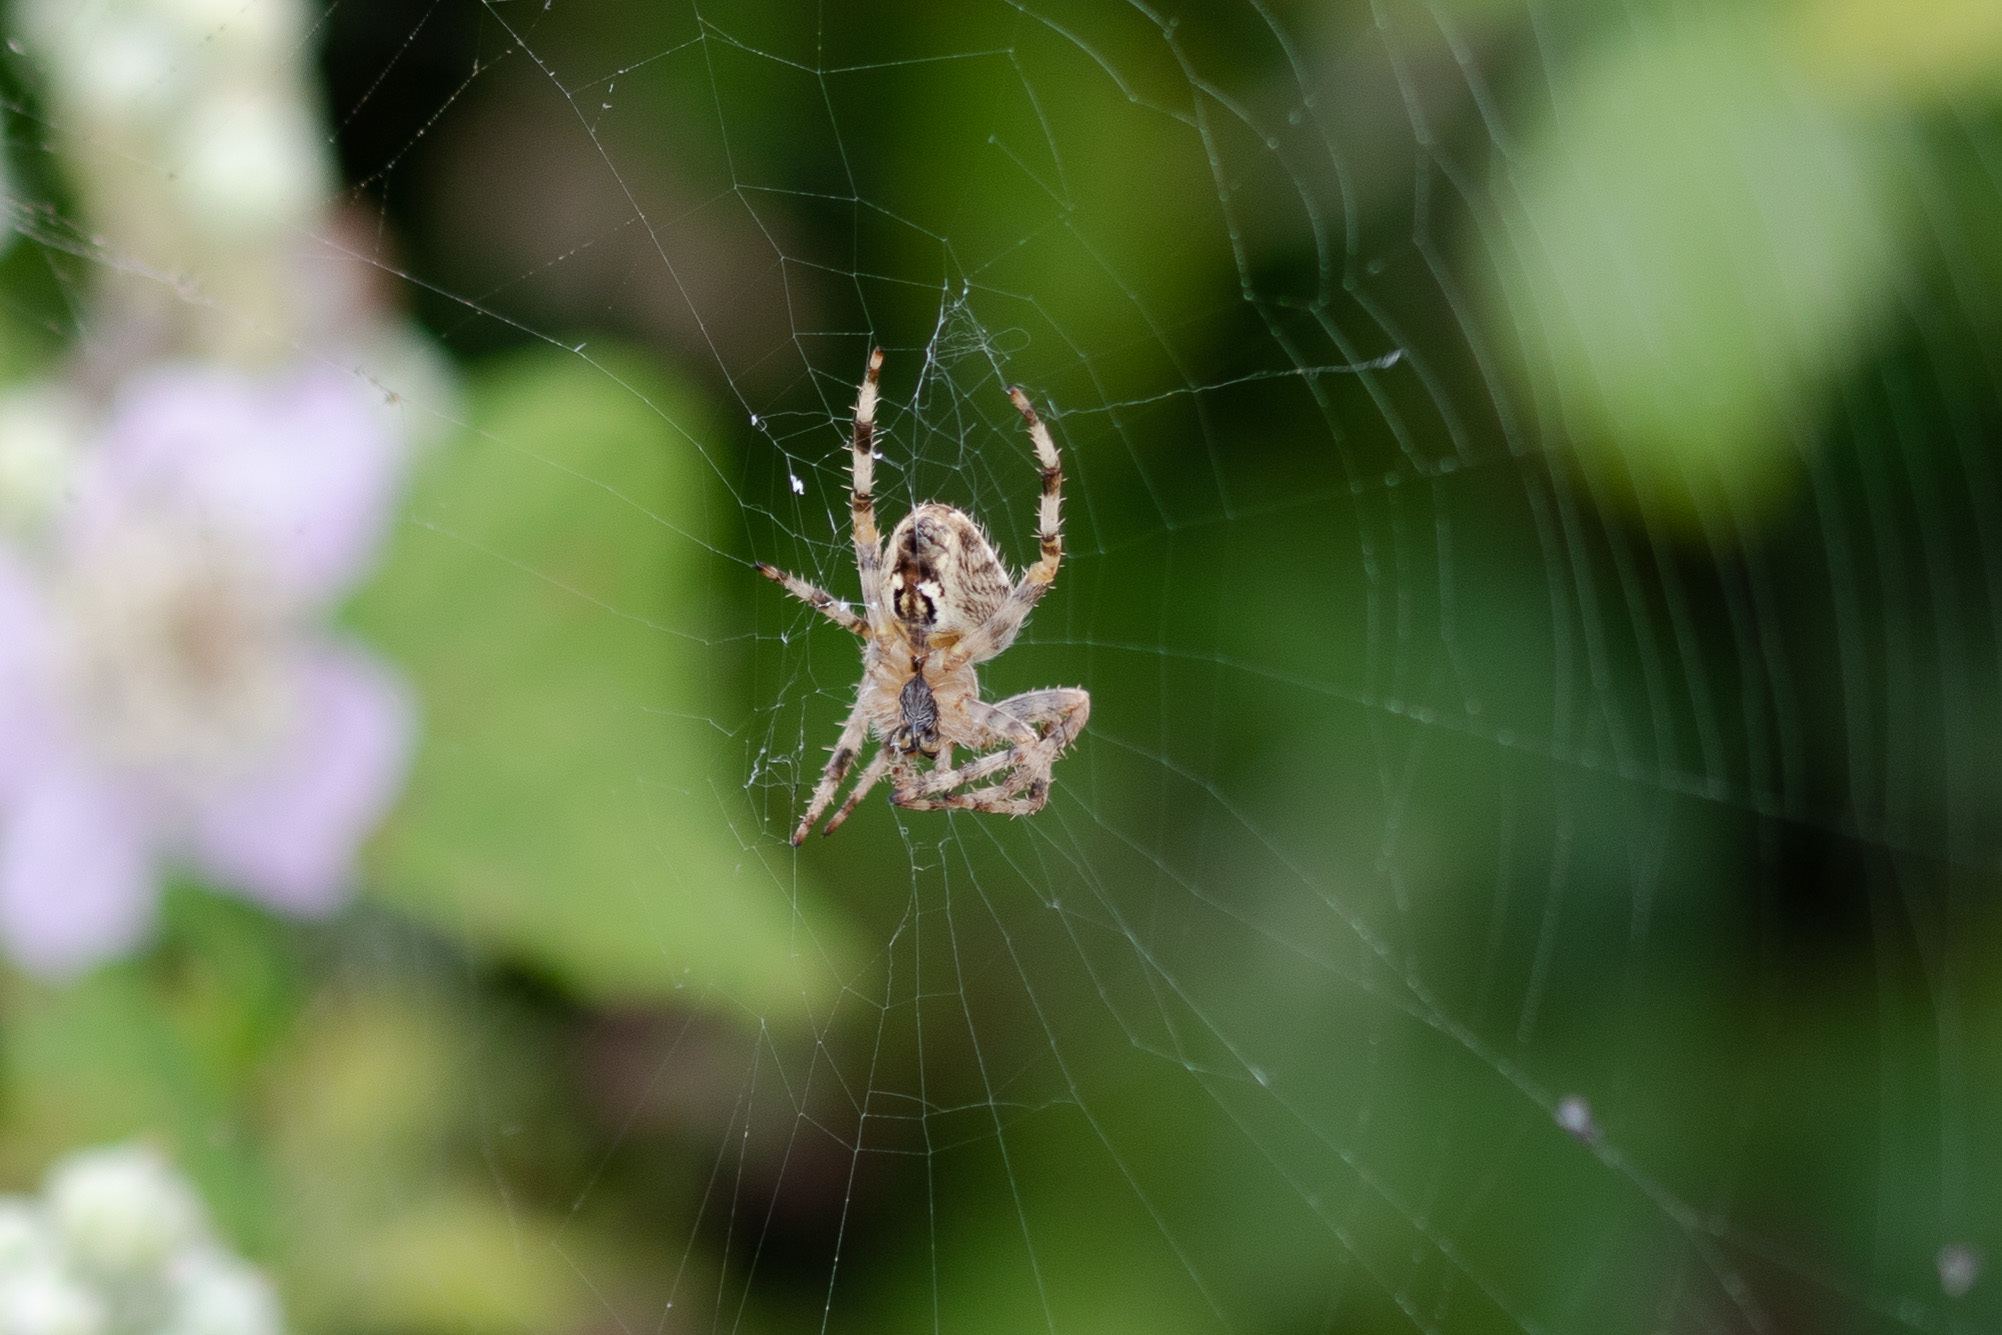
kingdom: Animalia
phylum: Arthropoda
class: Arachnida
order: Araneae
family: Araneidae
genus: Araneus
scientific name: Araneus diadematus
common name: Cross orbweaver
